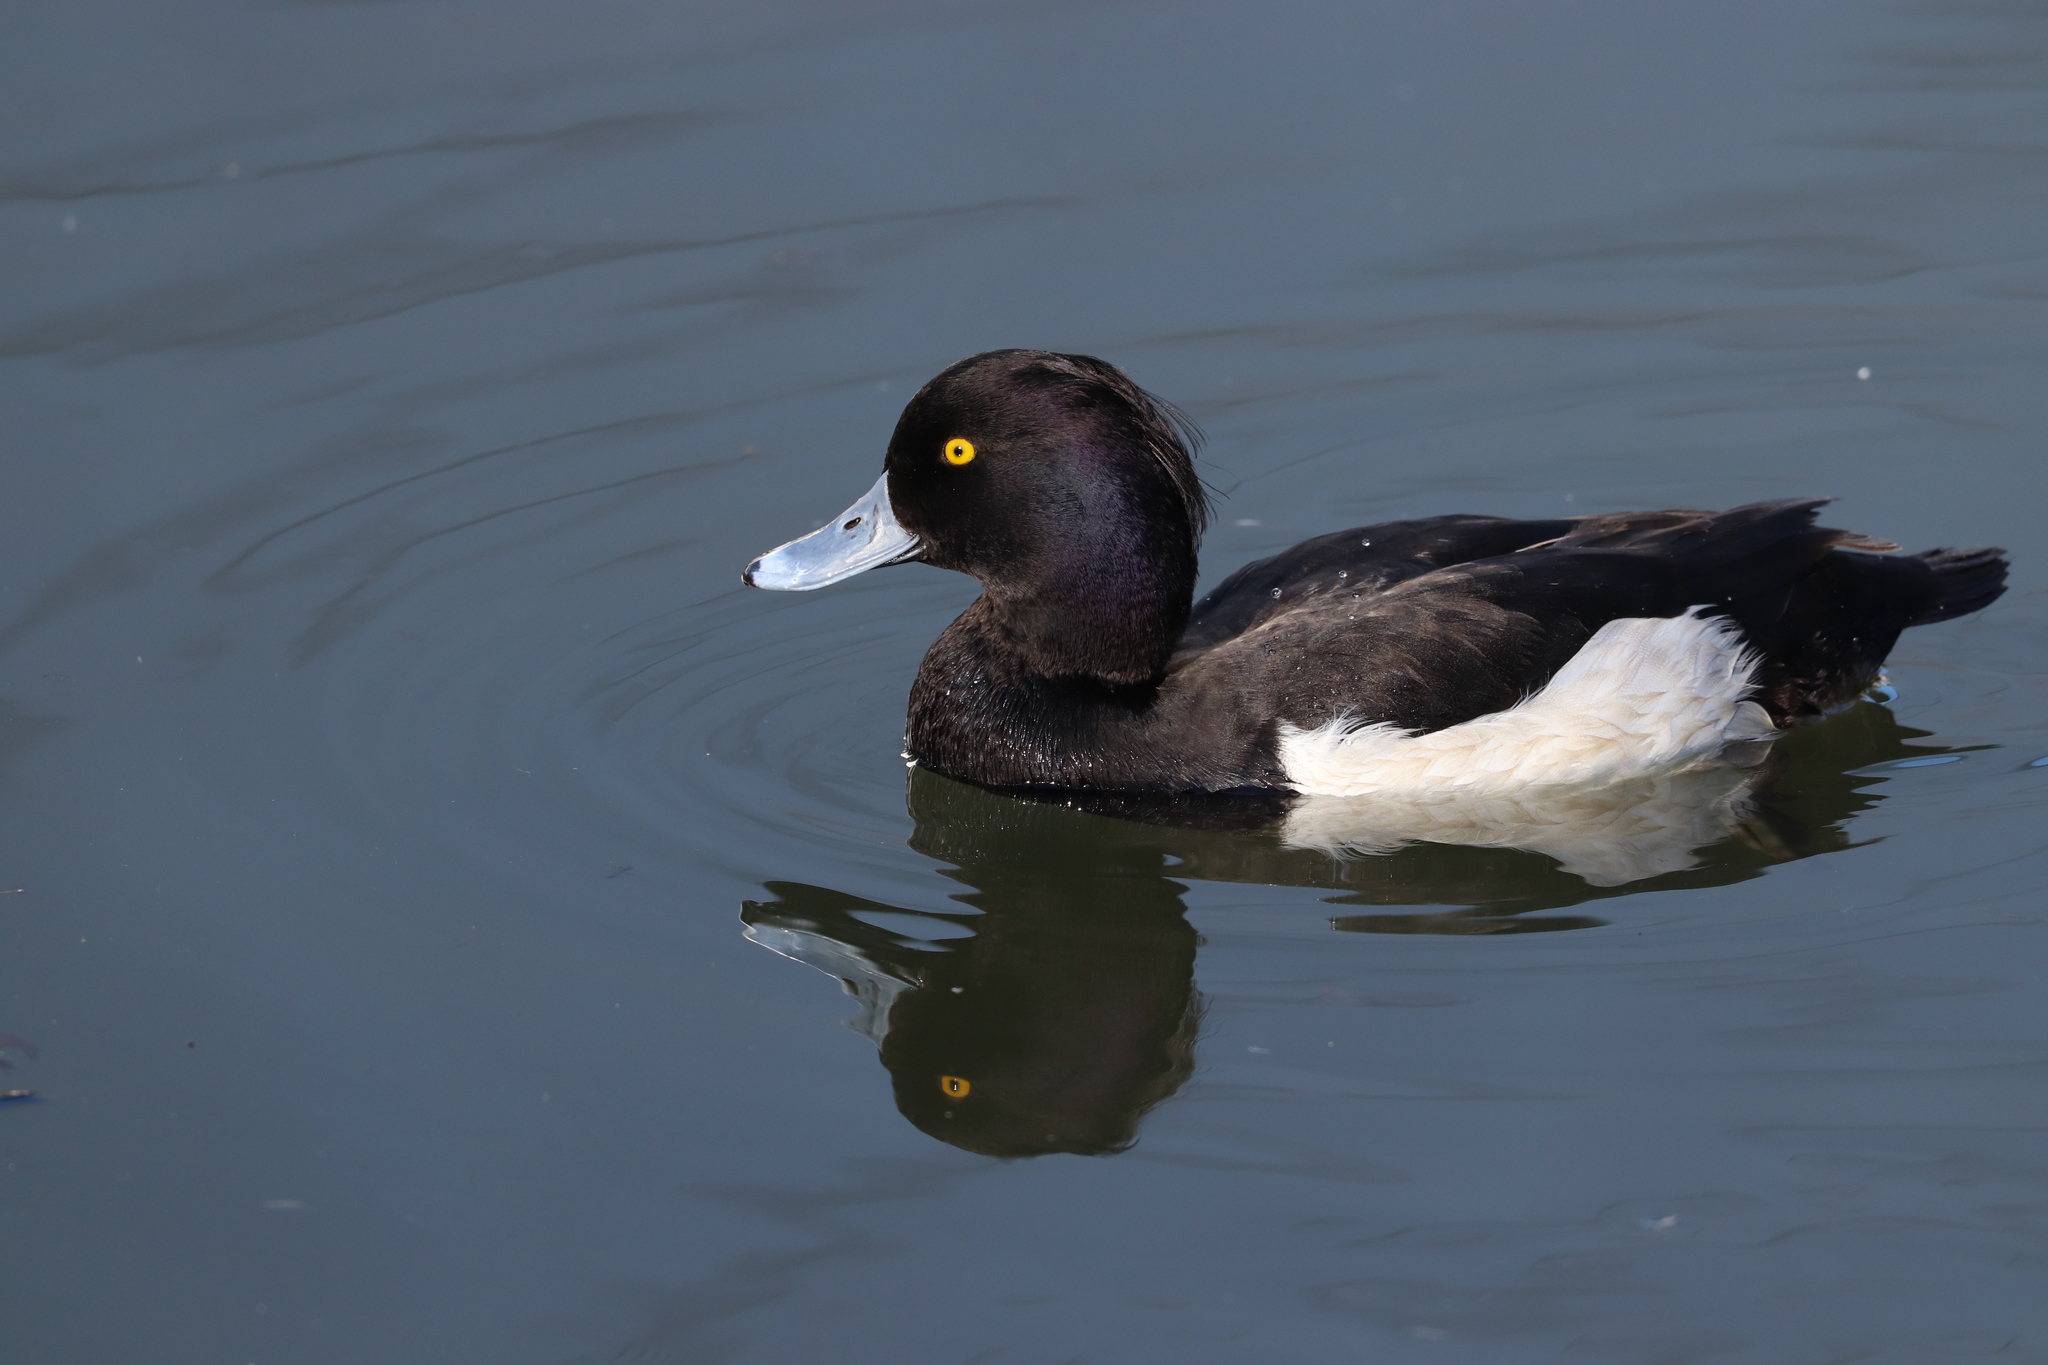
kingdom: Animalia
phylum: Chordata
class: Aves
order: Anseriformes
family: Anatidae
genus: Aythya
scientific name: Aythya fuligula
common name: Tufted duck
